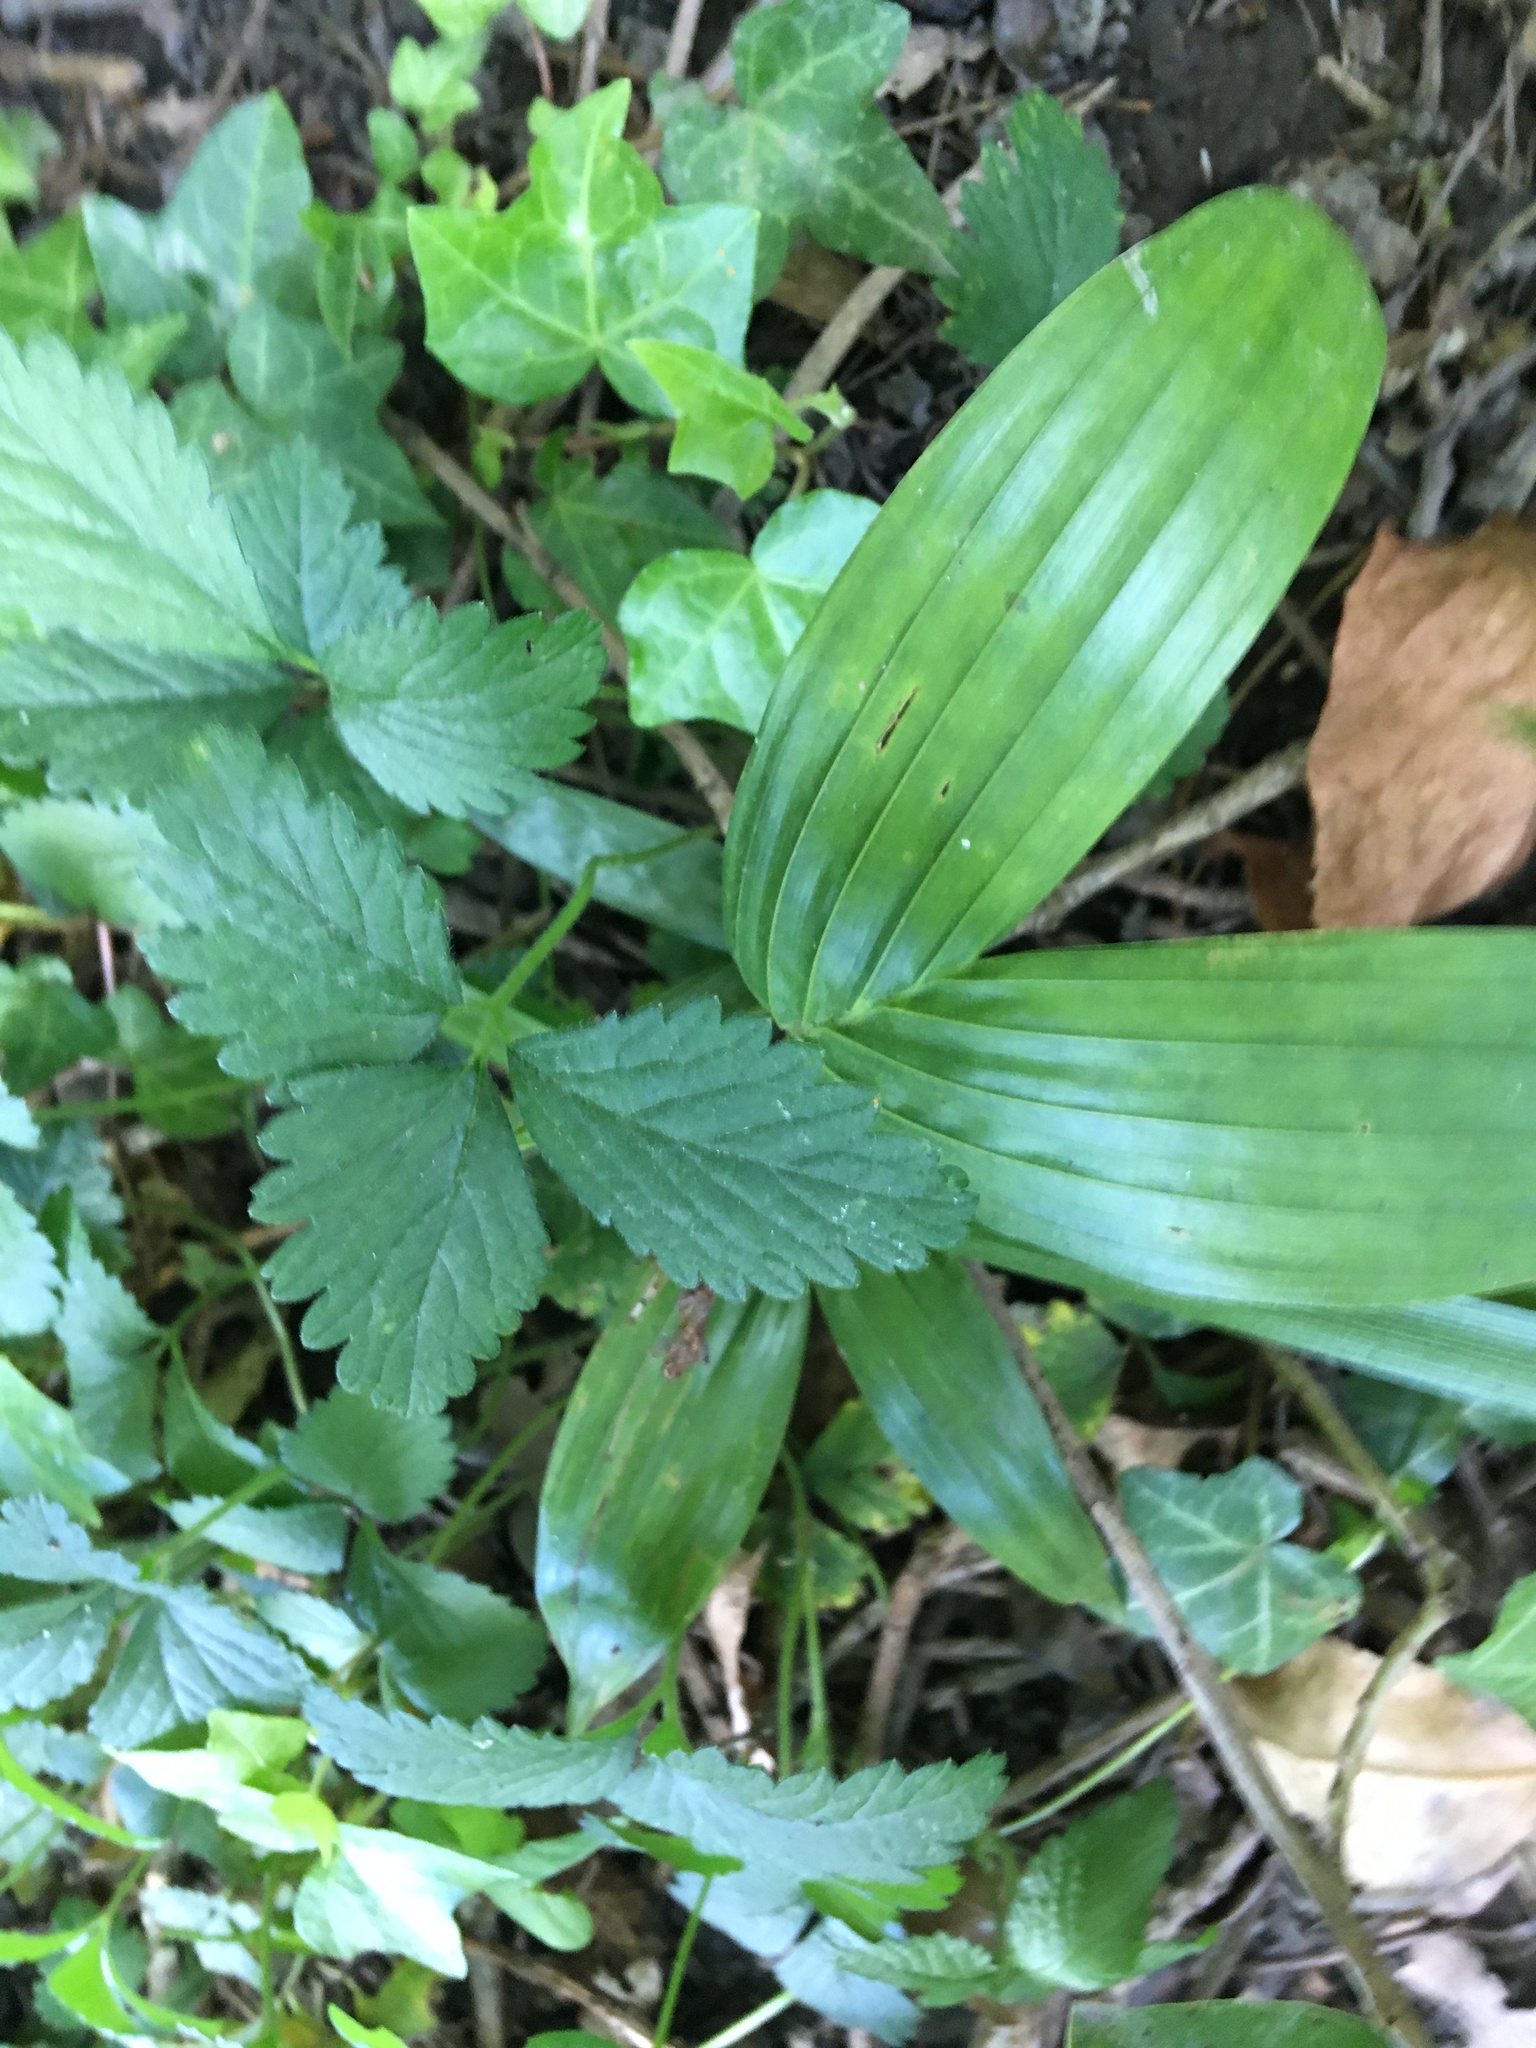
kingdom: Plantae
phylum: Tracheophyta
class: Liliopsida
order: Arecales
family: Arecaceae
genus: Archontophoenix
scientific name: Archontophoenix cunninghamiana
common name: Piccabeen bangalow palm
